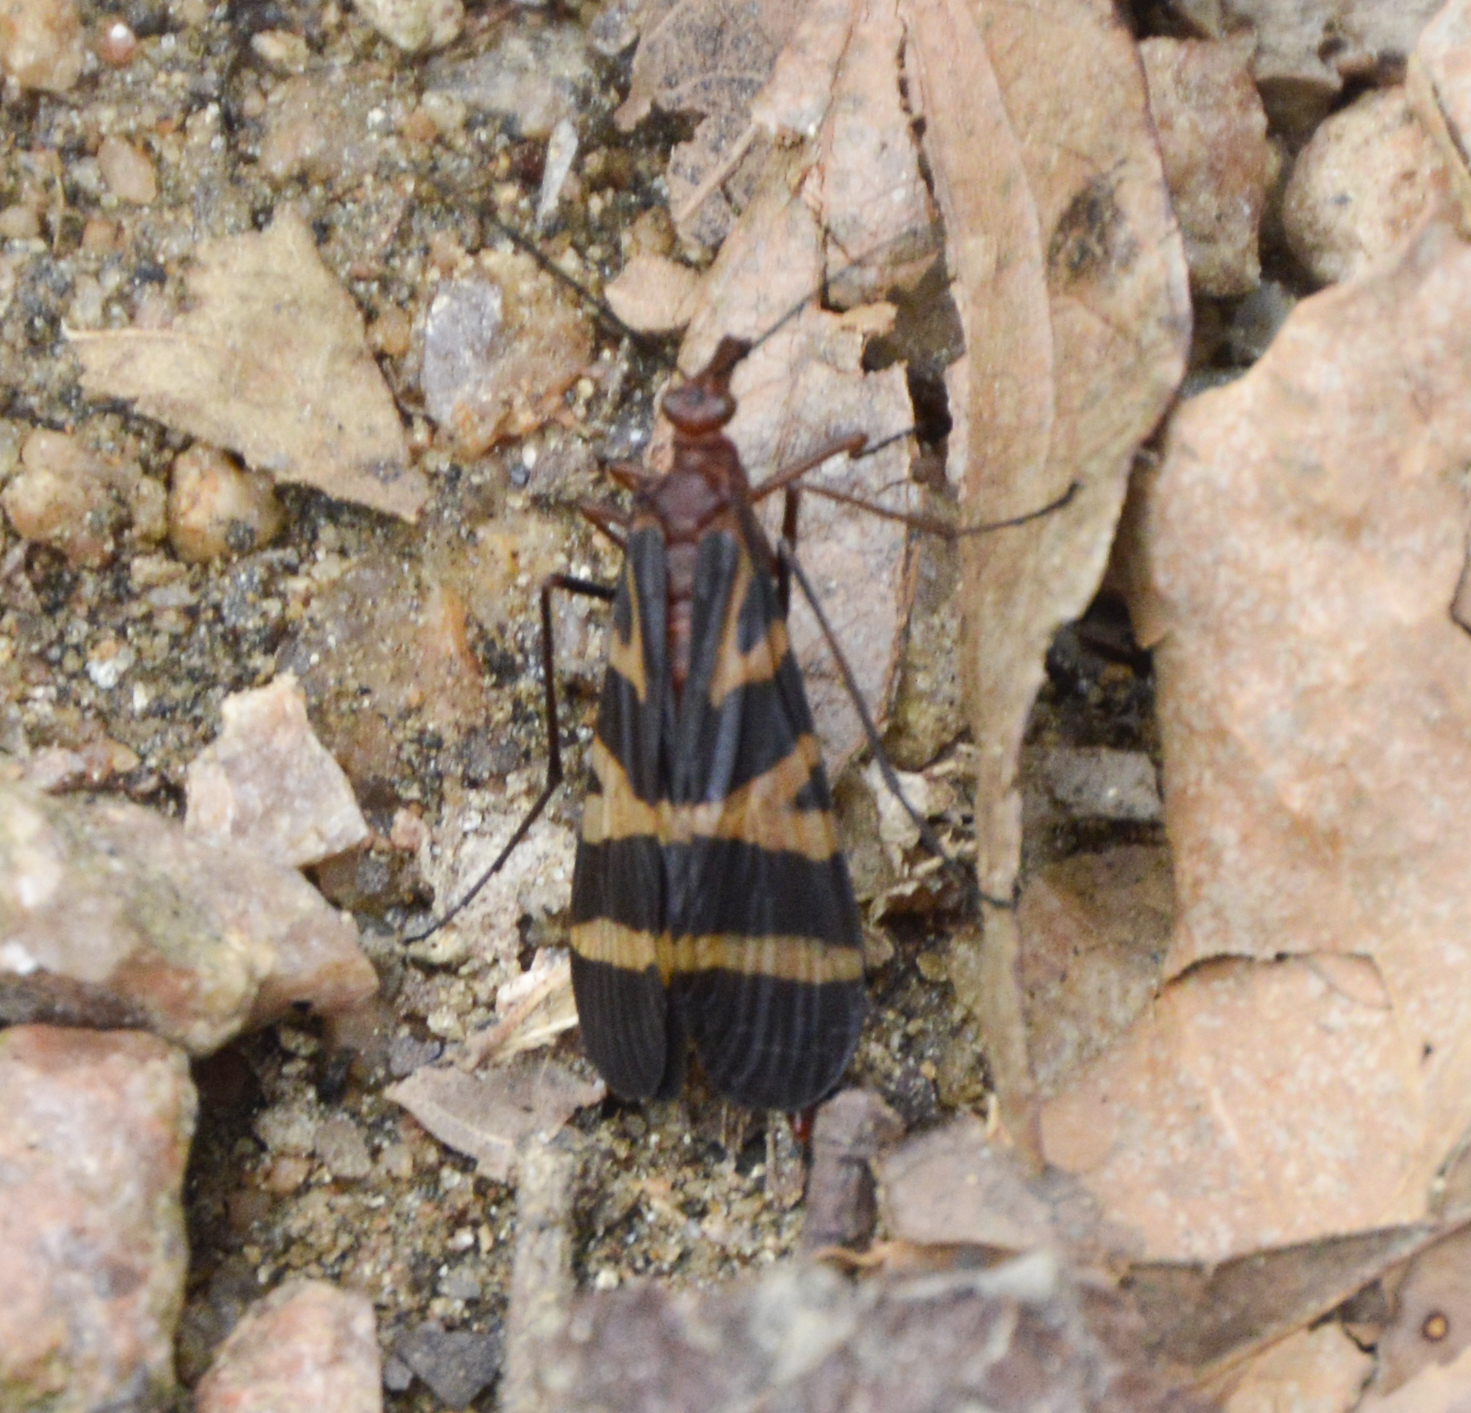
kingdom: Animalia
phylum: Arthropoda
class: Insecta
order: Mecoptera
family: Panorpidae
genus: Panorpa
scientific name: Panorpa nuptialis
